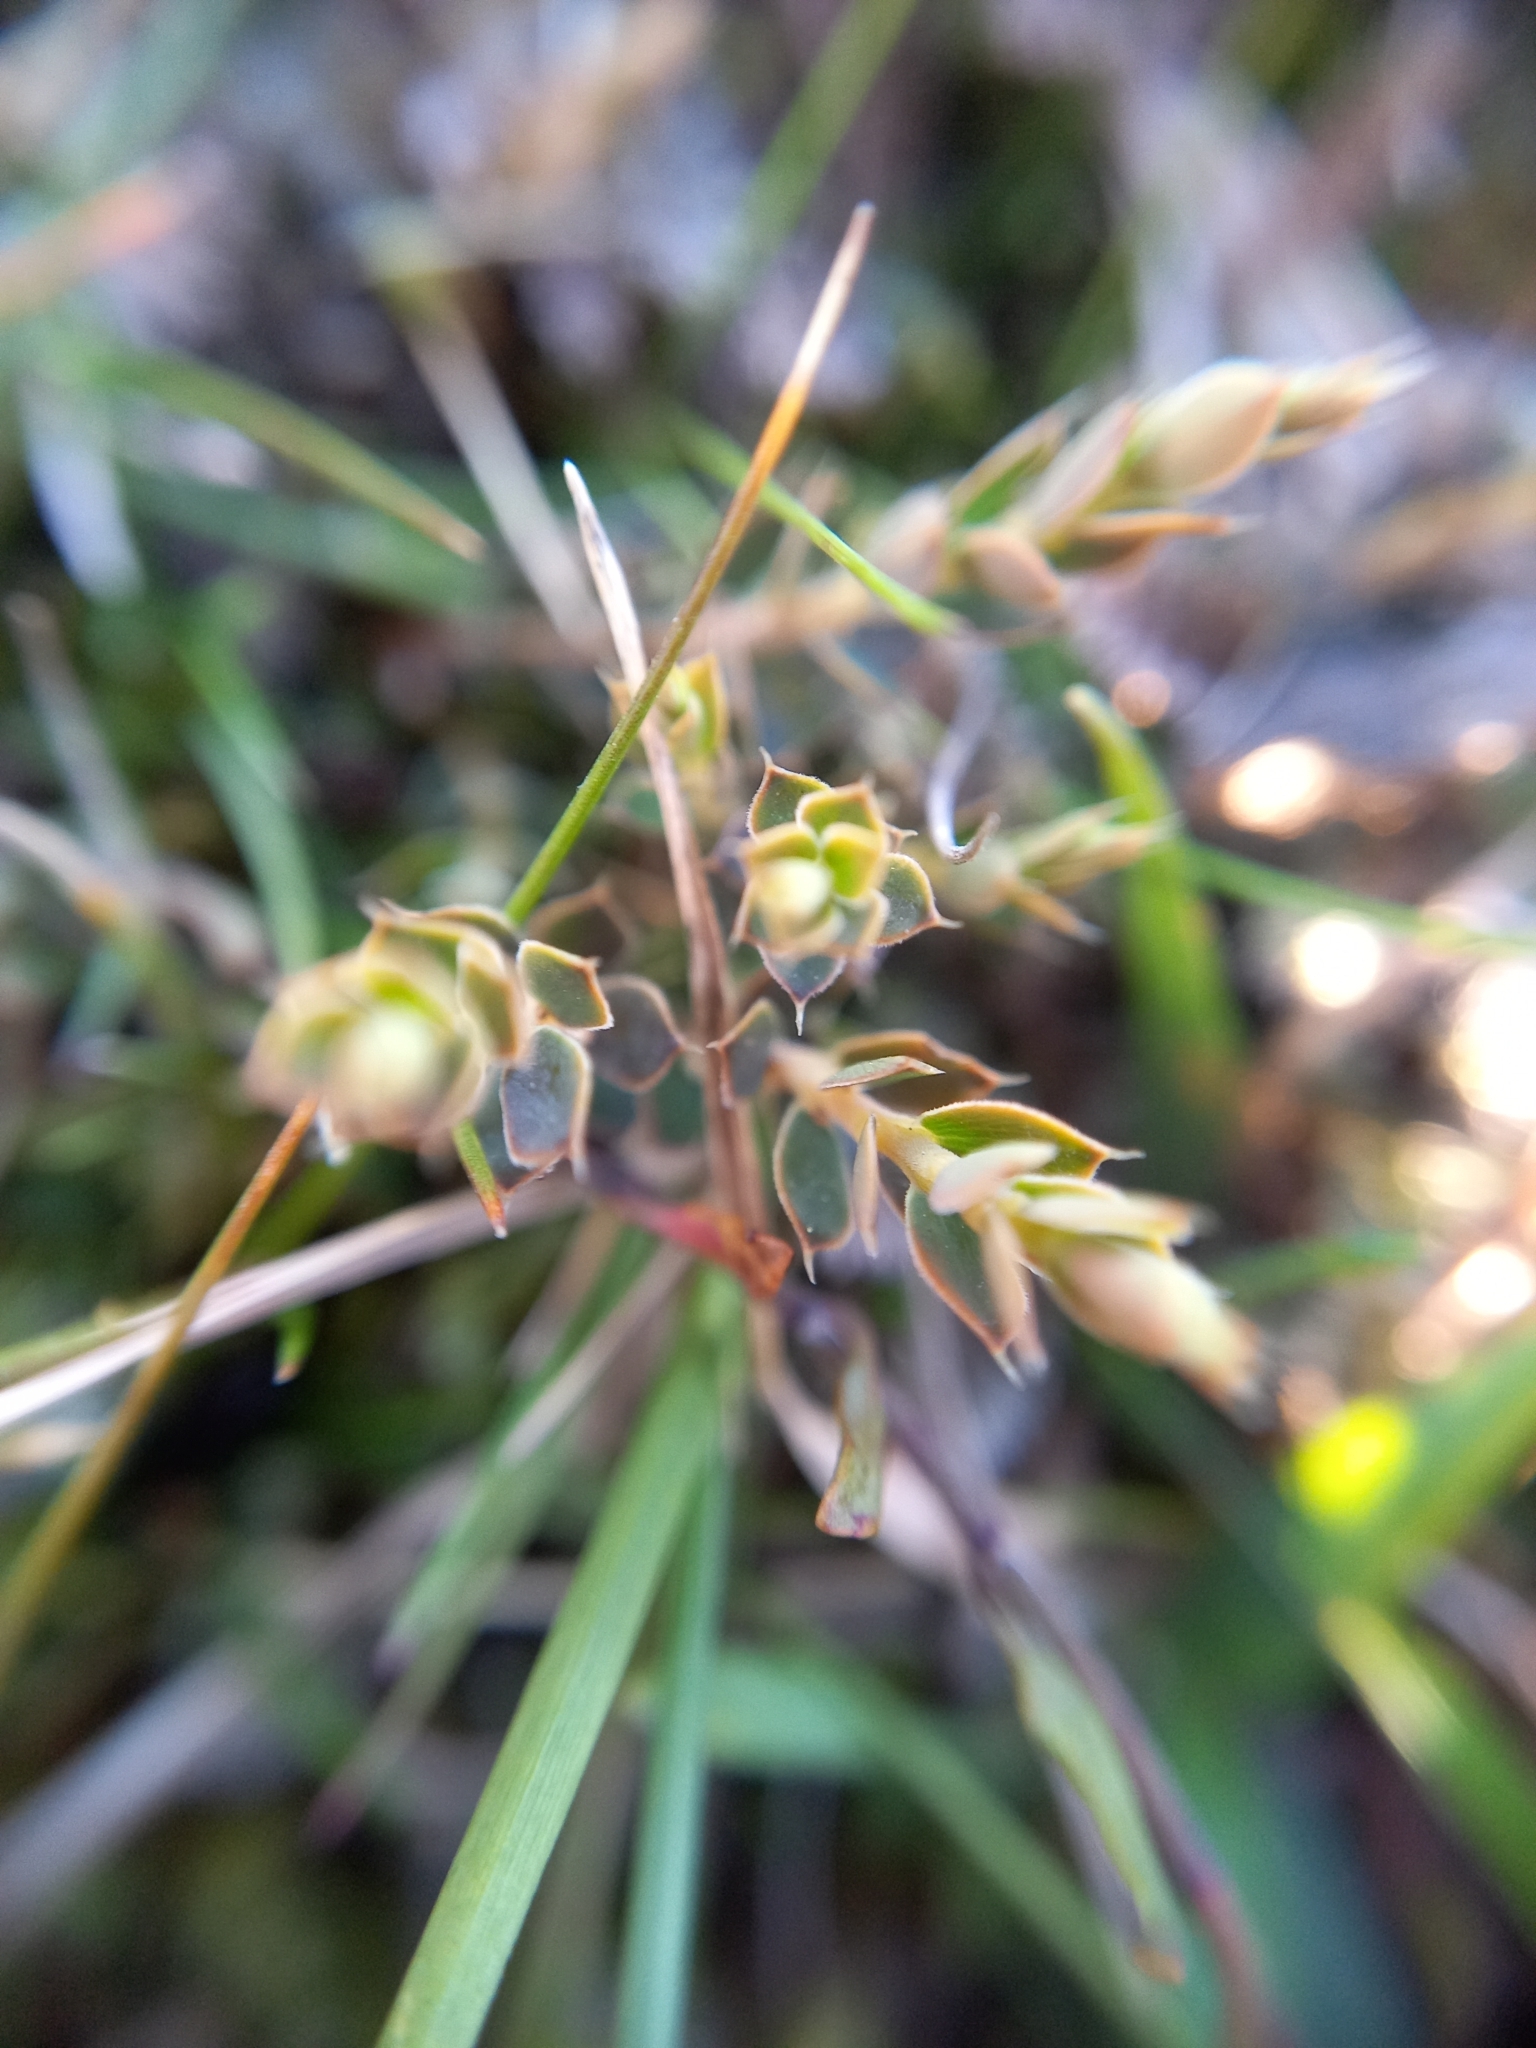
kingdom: Plantae
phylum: Tracheophyta
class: Magnoliopsida
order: Ericales
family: Ericaceae
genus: Styphelia
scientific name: Styphelia nesophila
